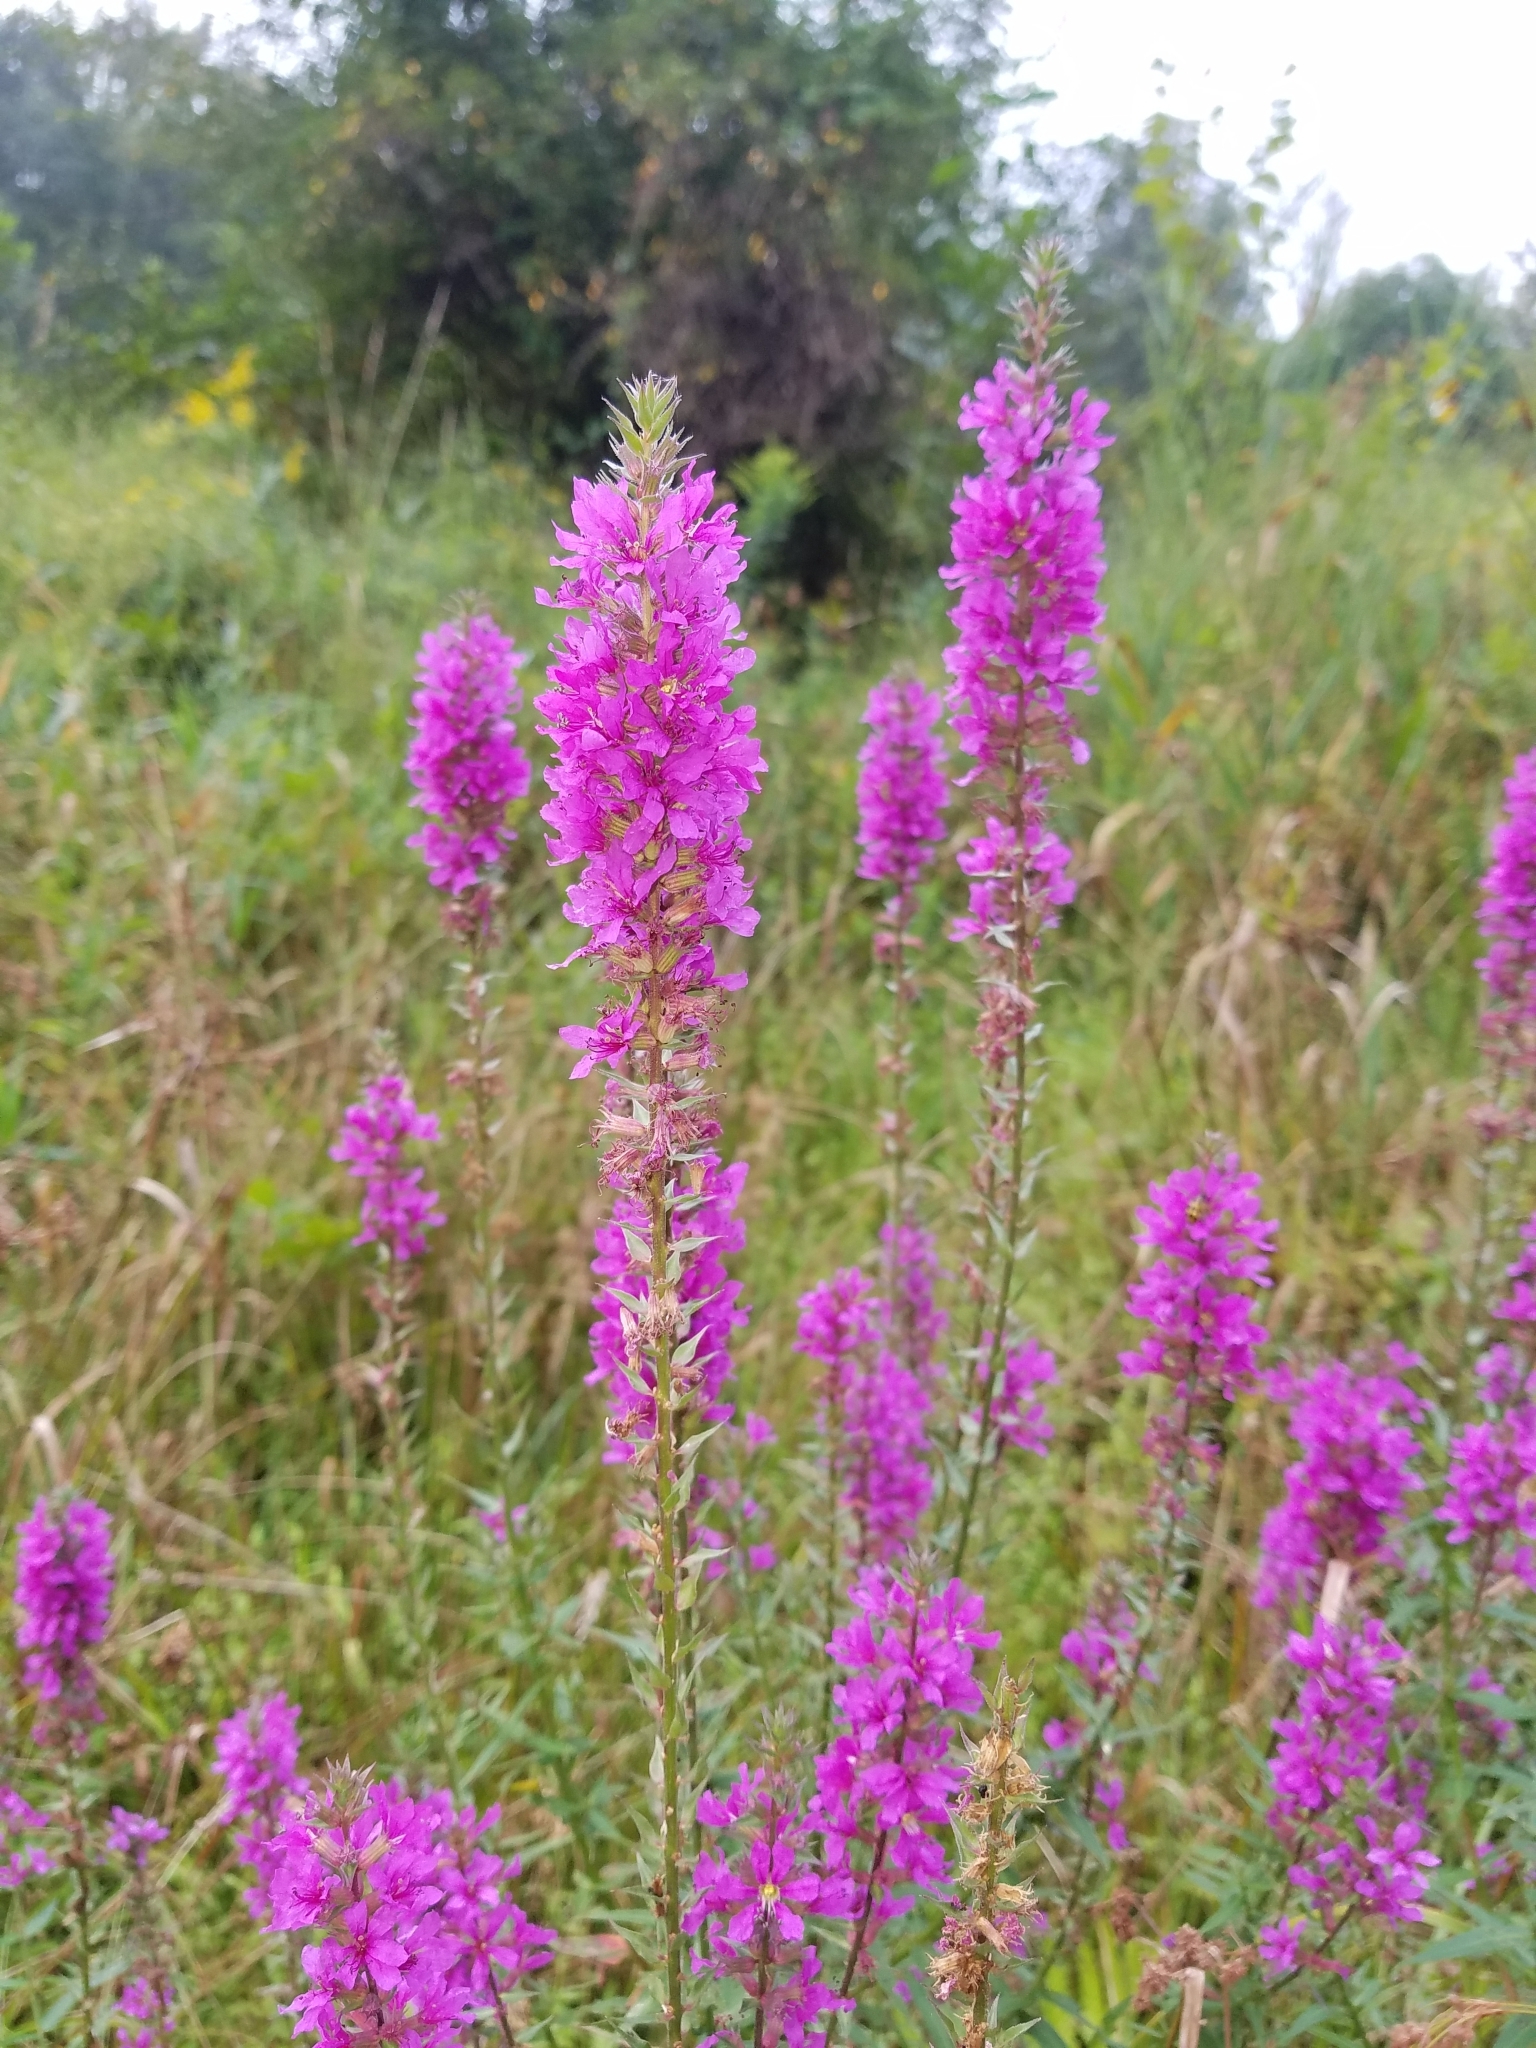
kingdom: Plantae
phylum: Tracheophyta
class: Magnoliopsida
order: Myrtales
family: Lythraceae
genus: Lythrum
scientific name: Lythrum salicaria
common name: Purple loosestrife
